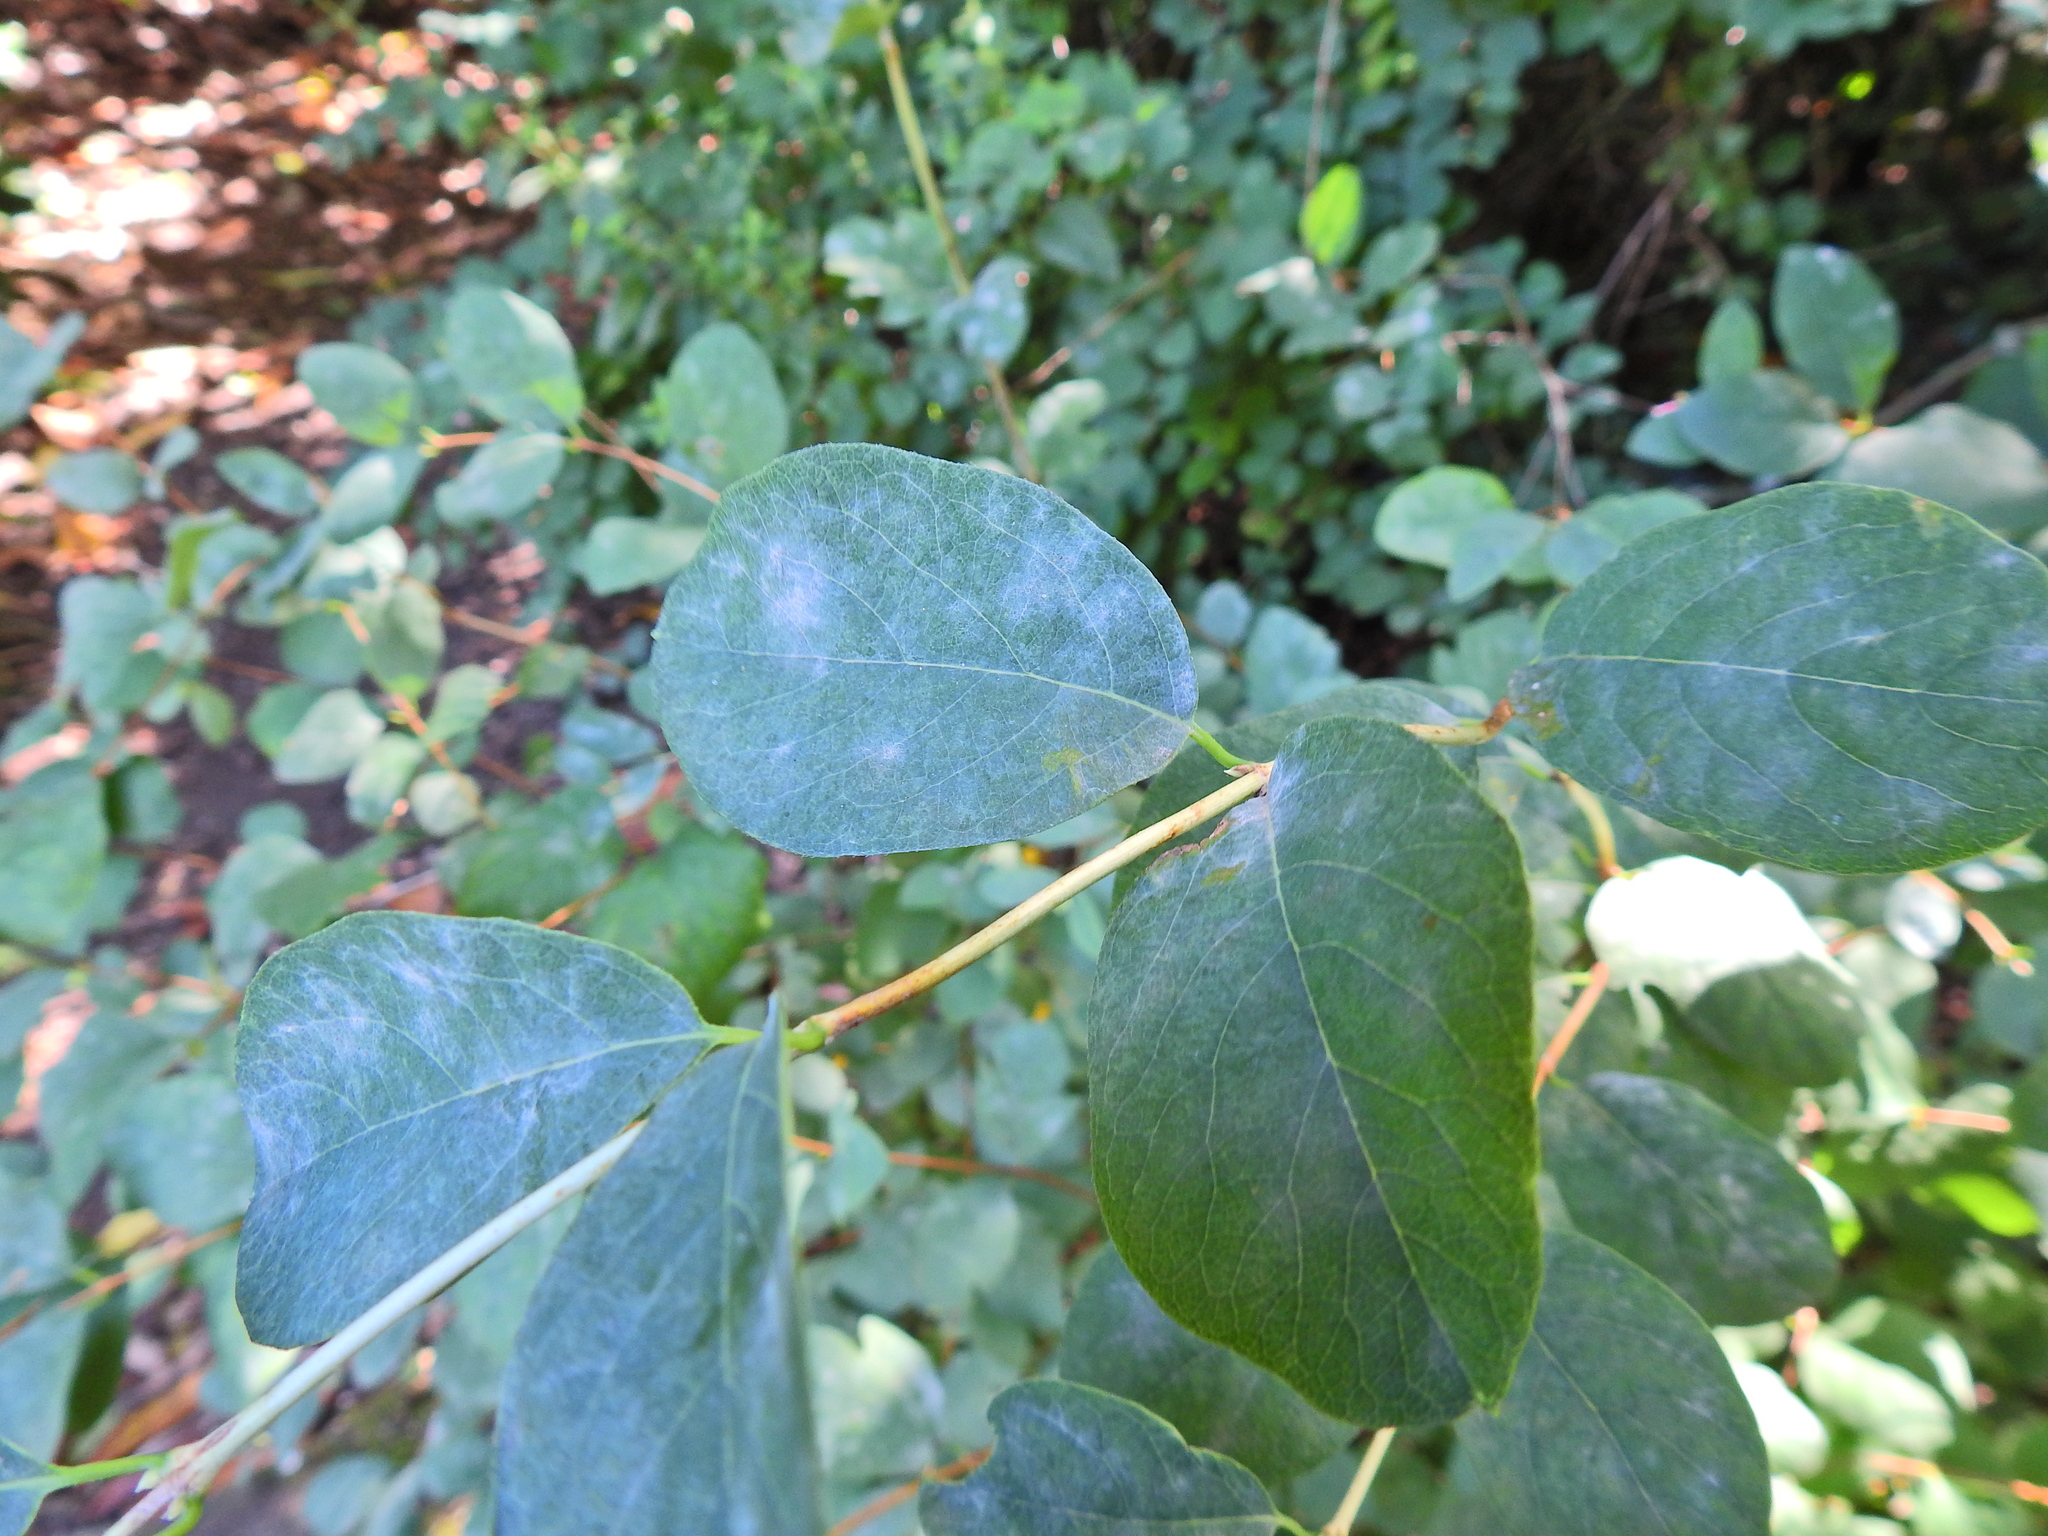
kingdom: Fungi
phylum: Ascomycota
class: Leotiomycetes
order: Helotiales
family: Erysiphaceae
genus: Erysiphe
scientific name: Erysiphe symphoricarpi
